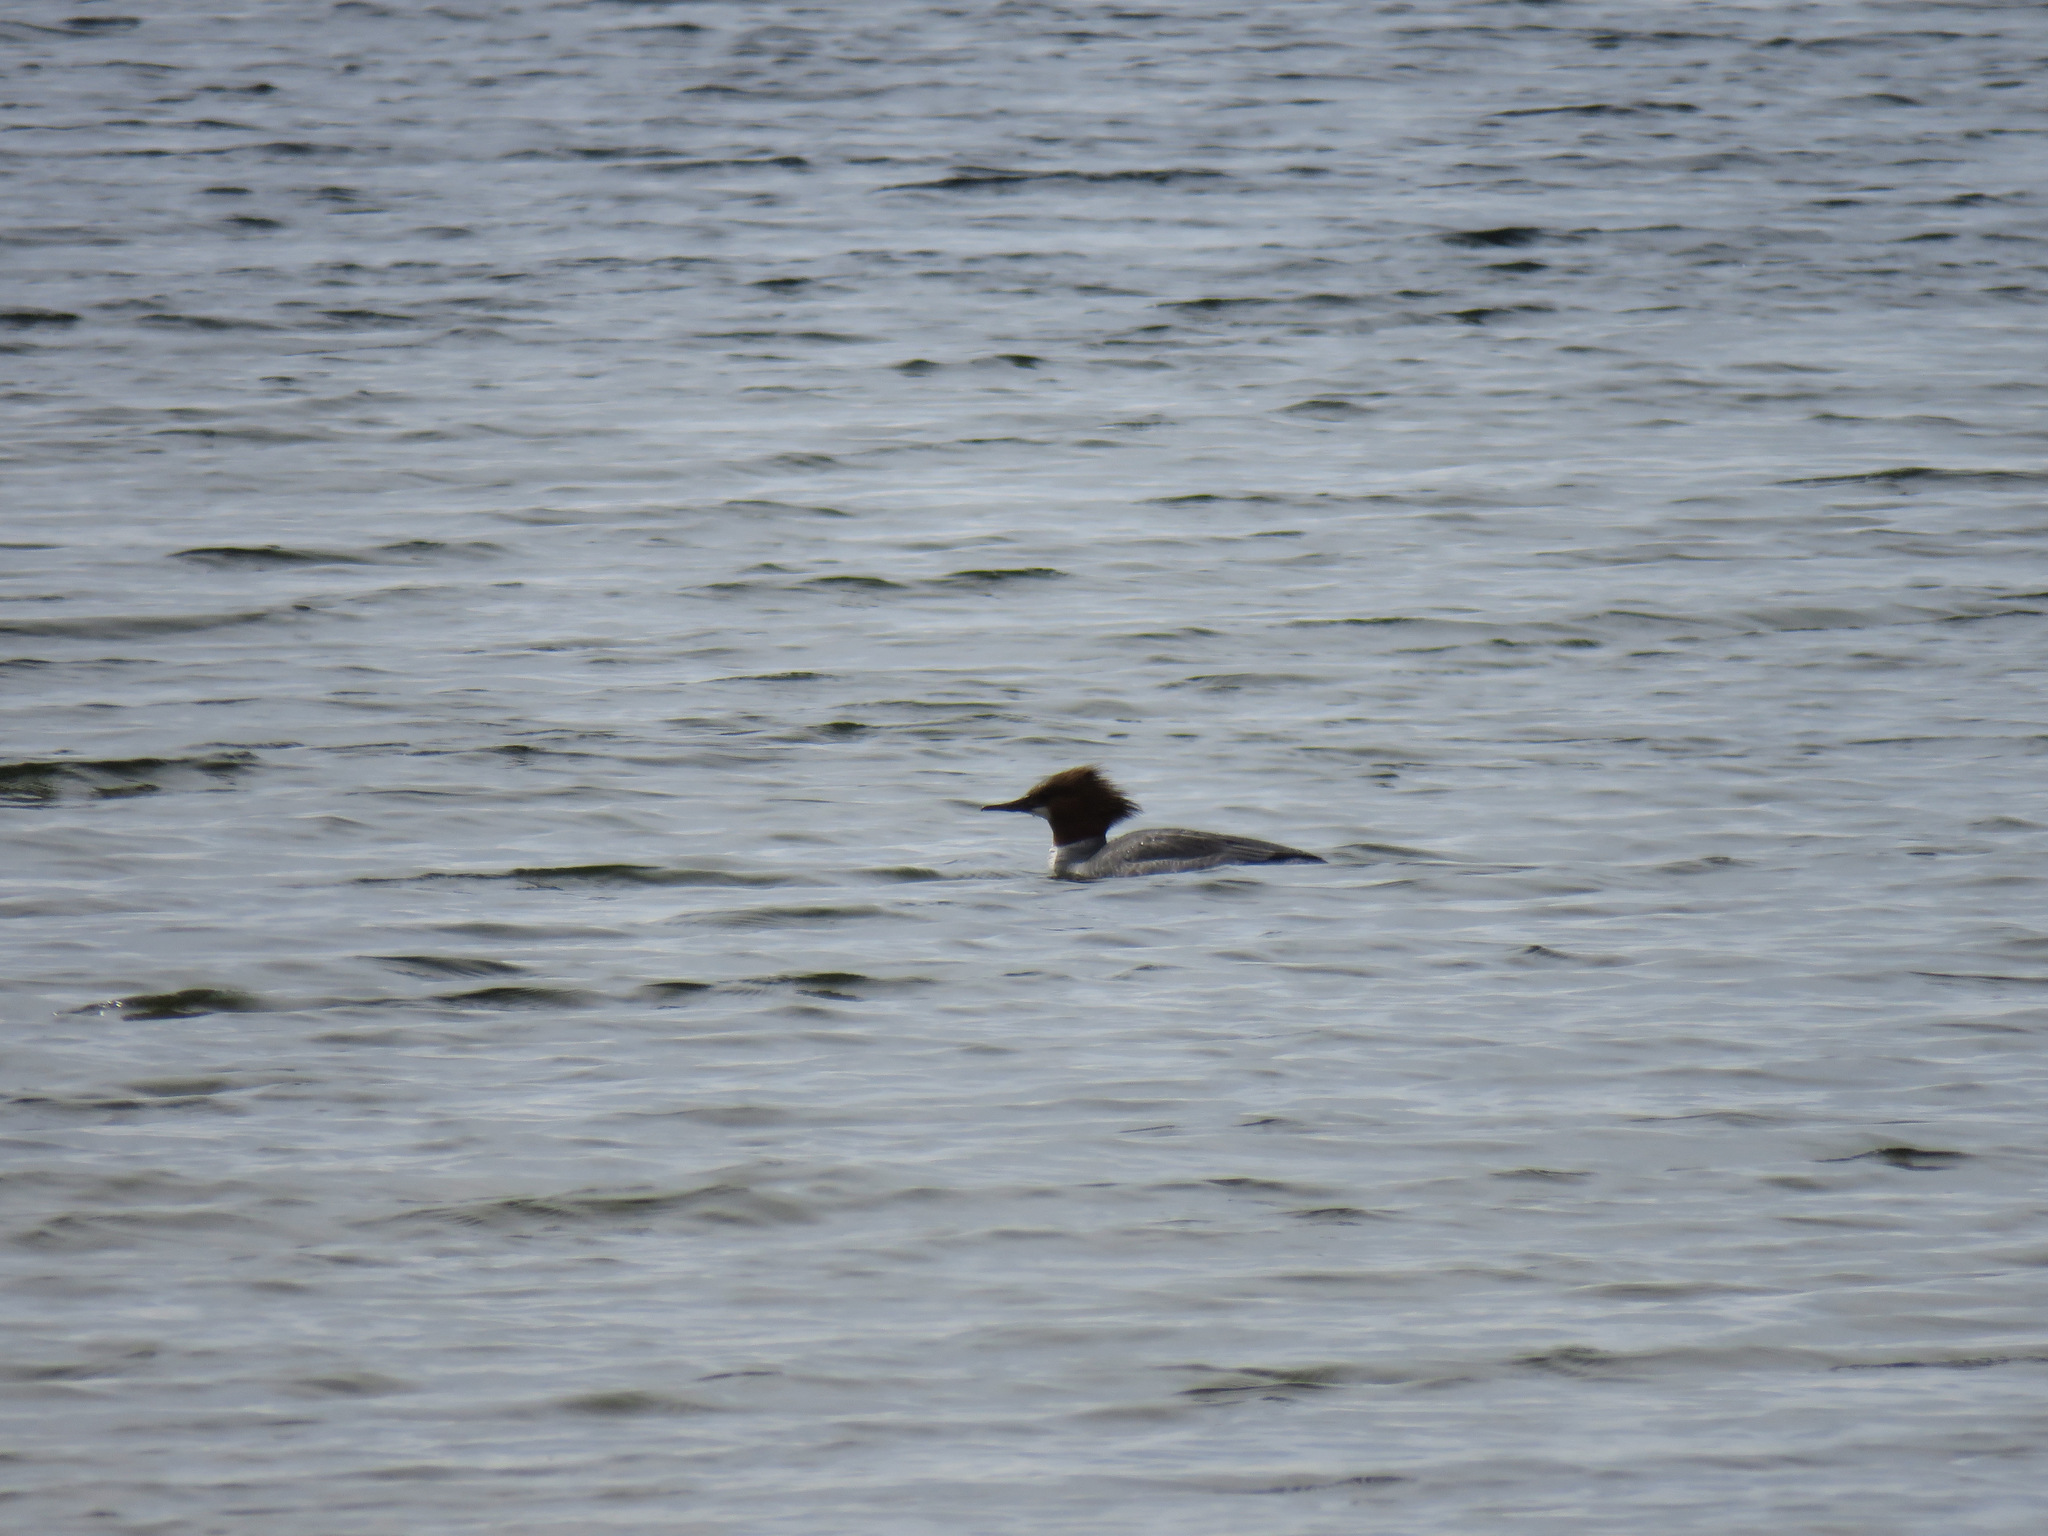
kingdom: Animalia
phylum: Chordata
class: Aves
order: Anseriformes
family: Anatidae
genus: Mergus
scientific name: Mergus merganser
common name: Common merganser
